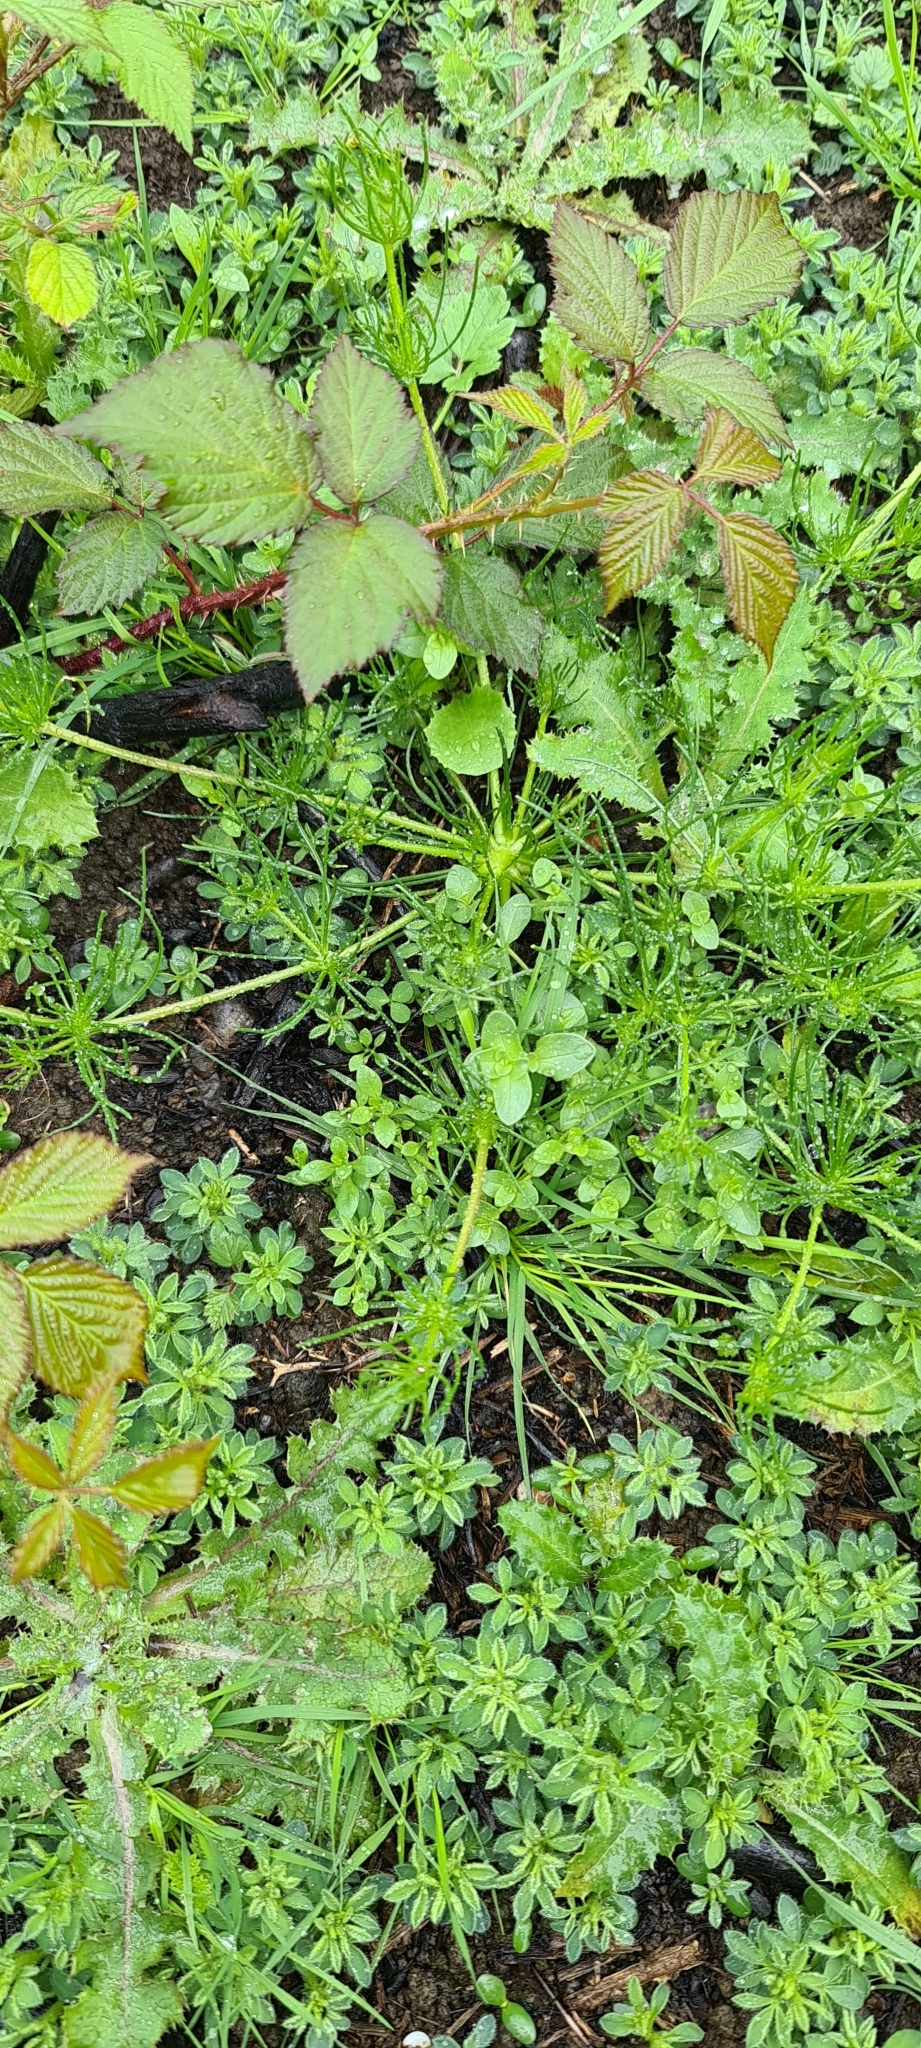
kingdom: Plantae
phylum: Tracheophyta
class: Magnoliopsida
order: Caryophyllales
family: Caryophyllaceae
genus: Spergula
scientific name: Spergula arvensis
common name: Corn spurrey
